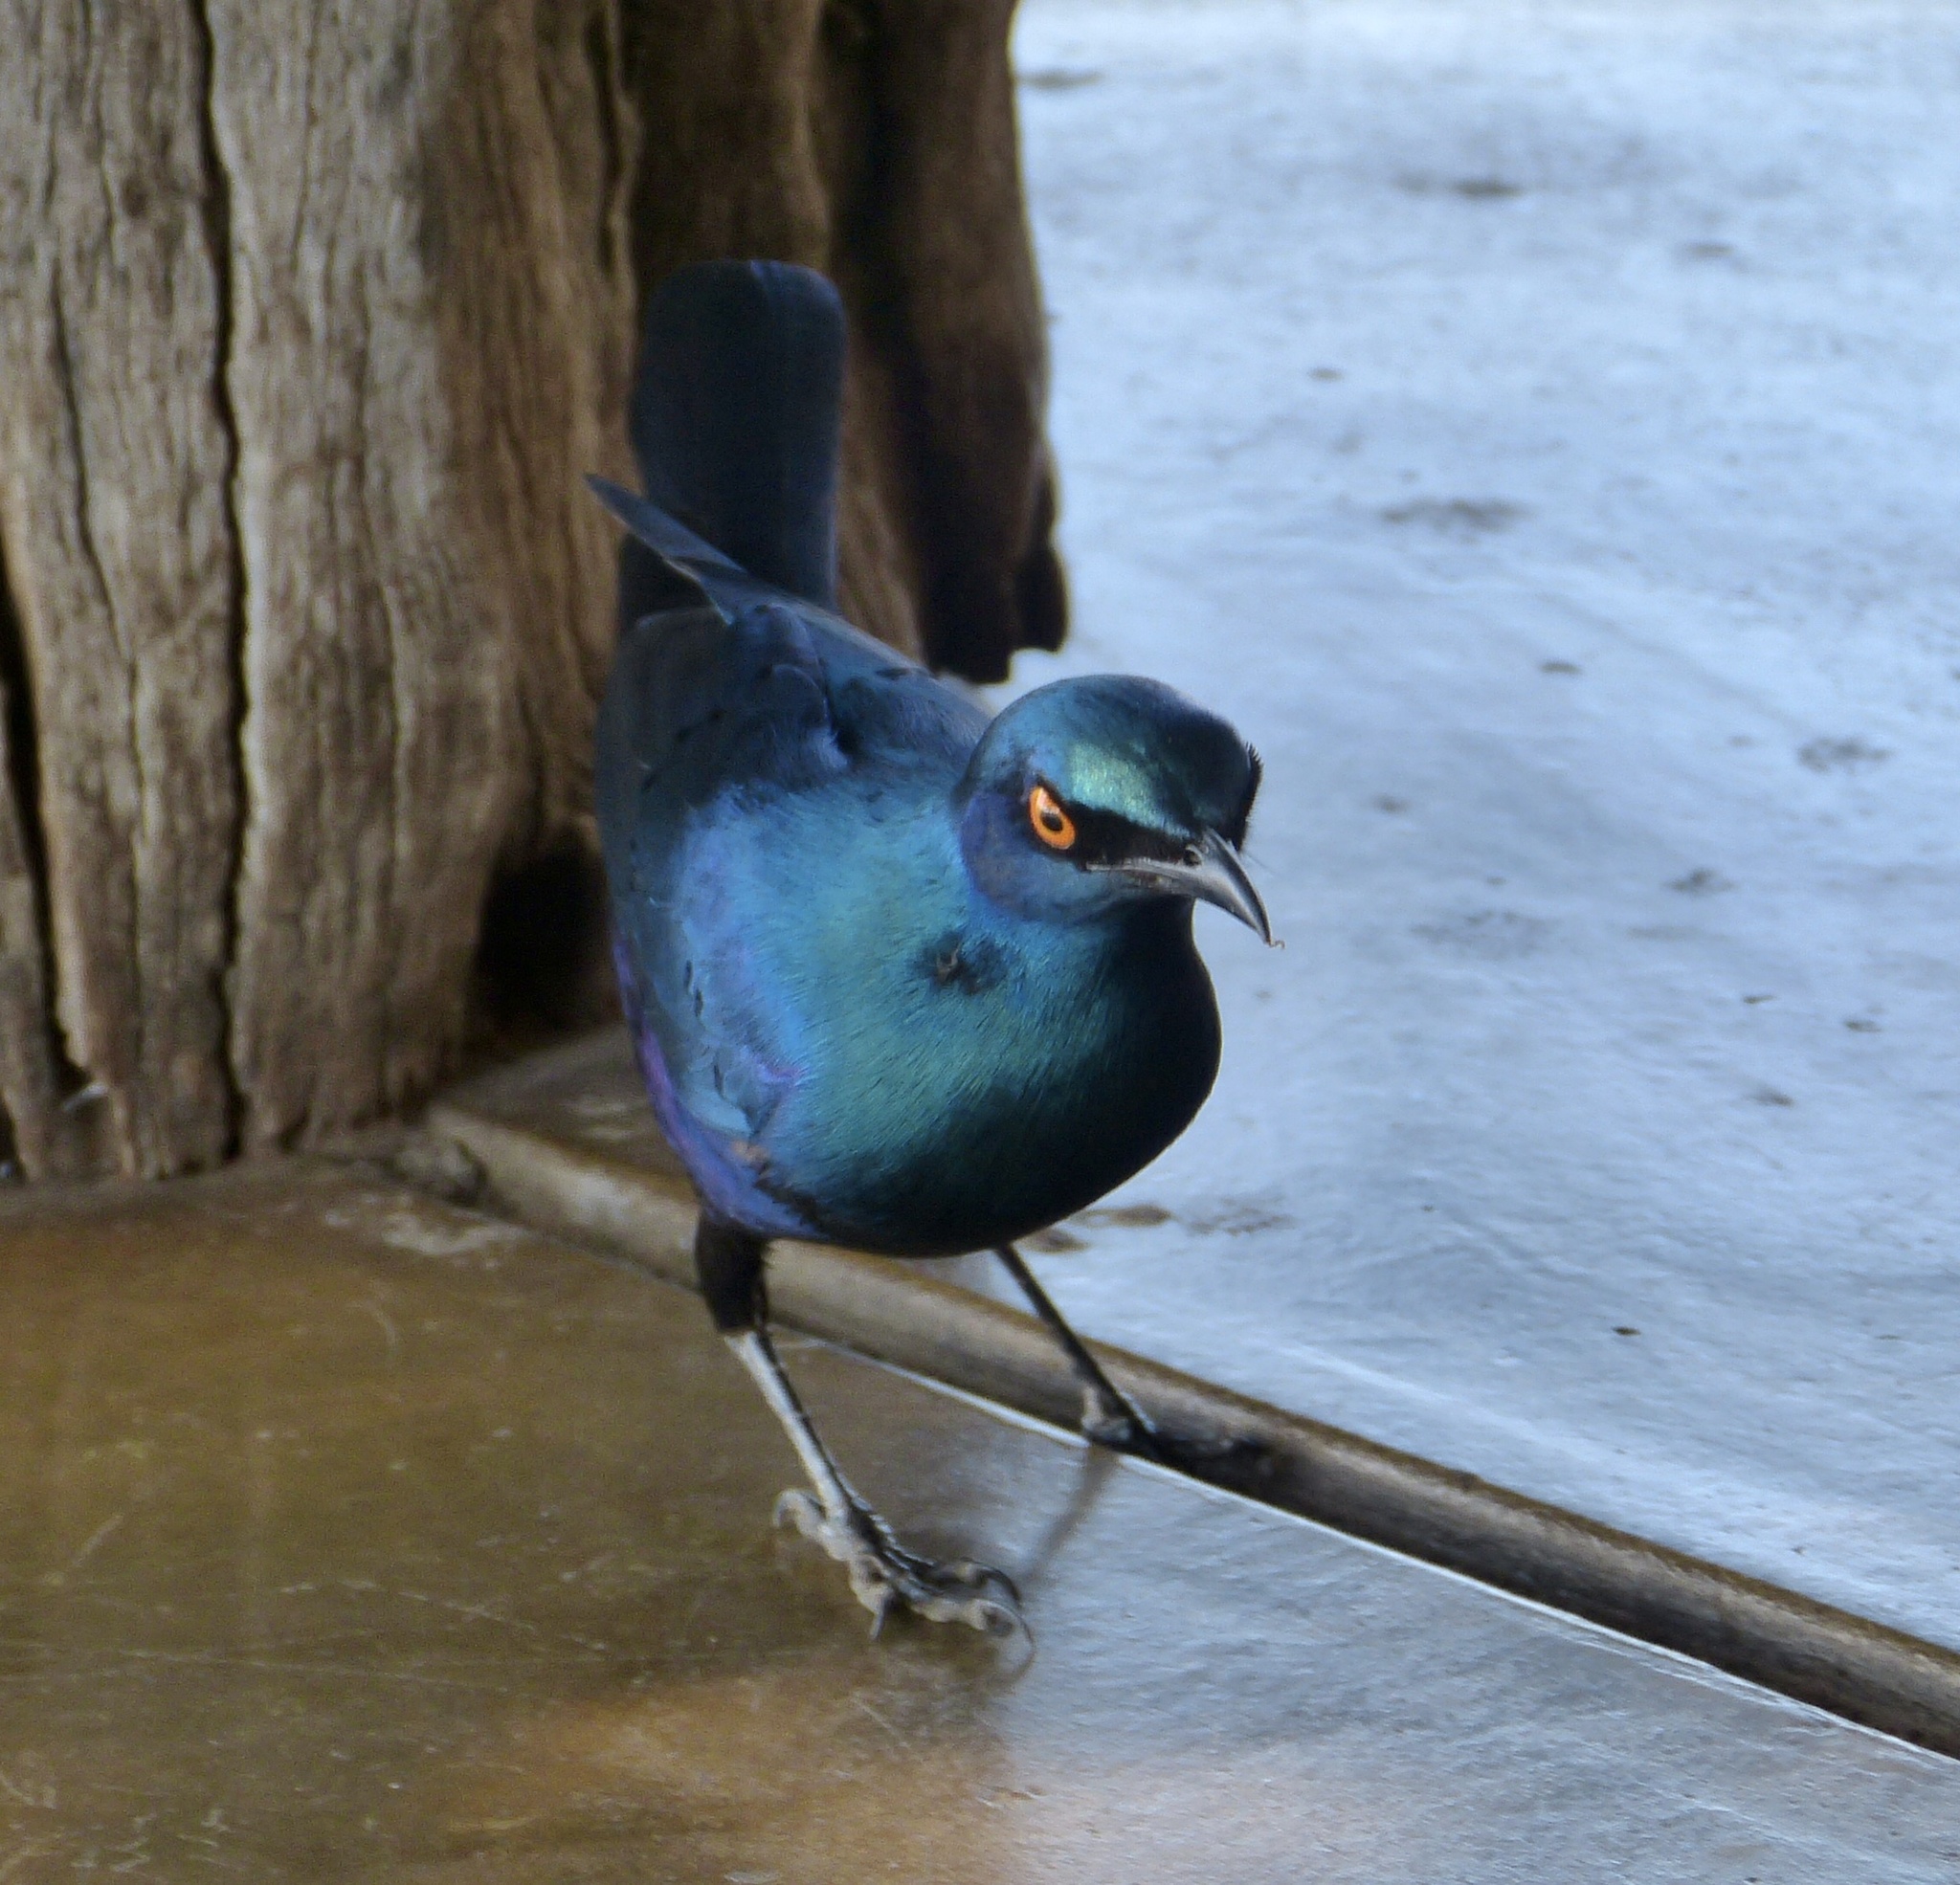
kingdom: Animalia
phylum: Chordata
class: Aves
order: Passeriformes
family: Sturnidae
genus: Lamprotornis
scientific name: Lamprotornis nitens
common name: Cape starling
